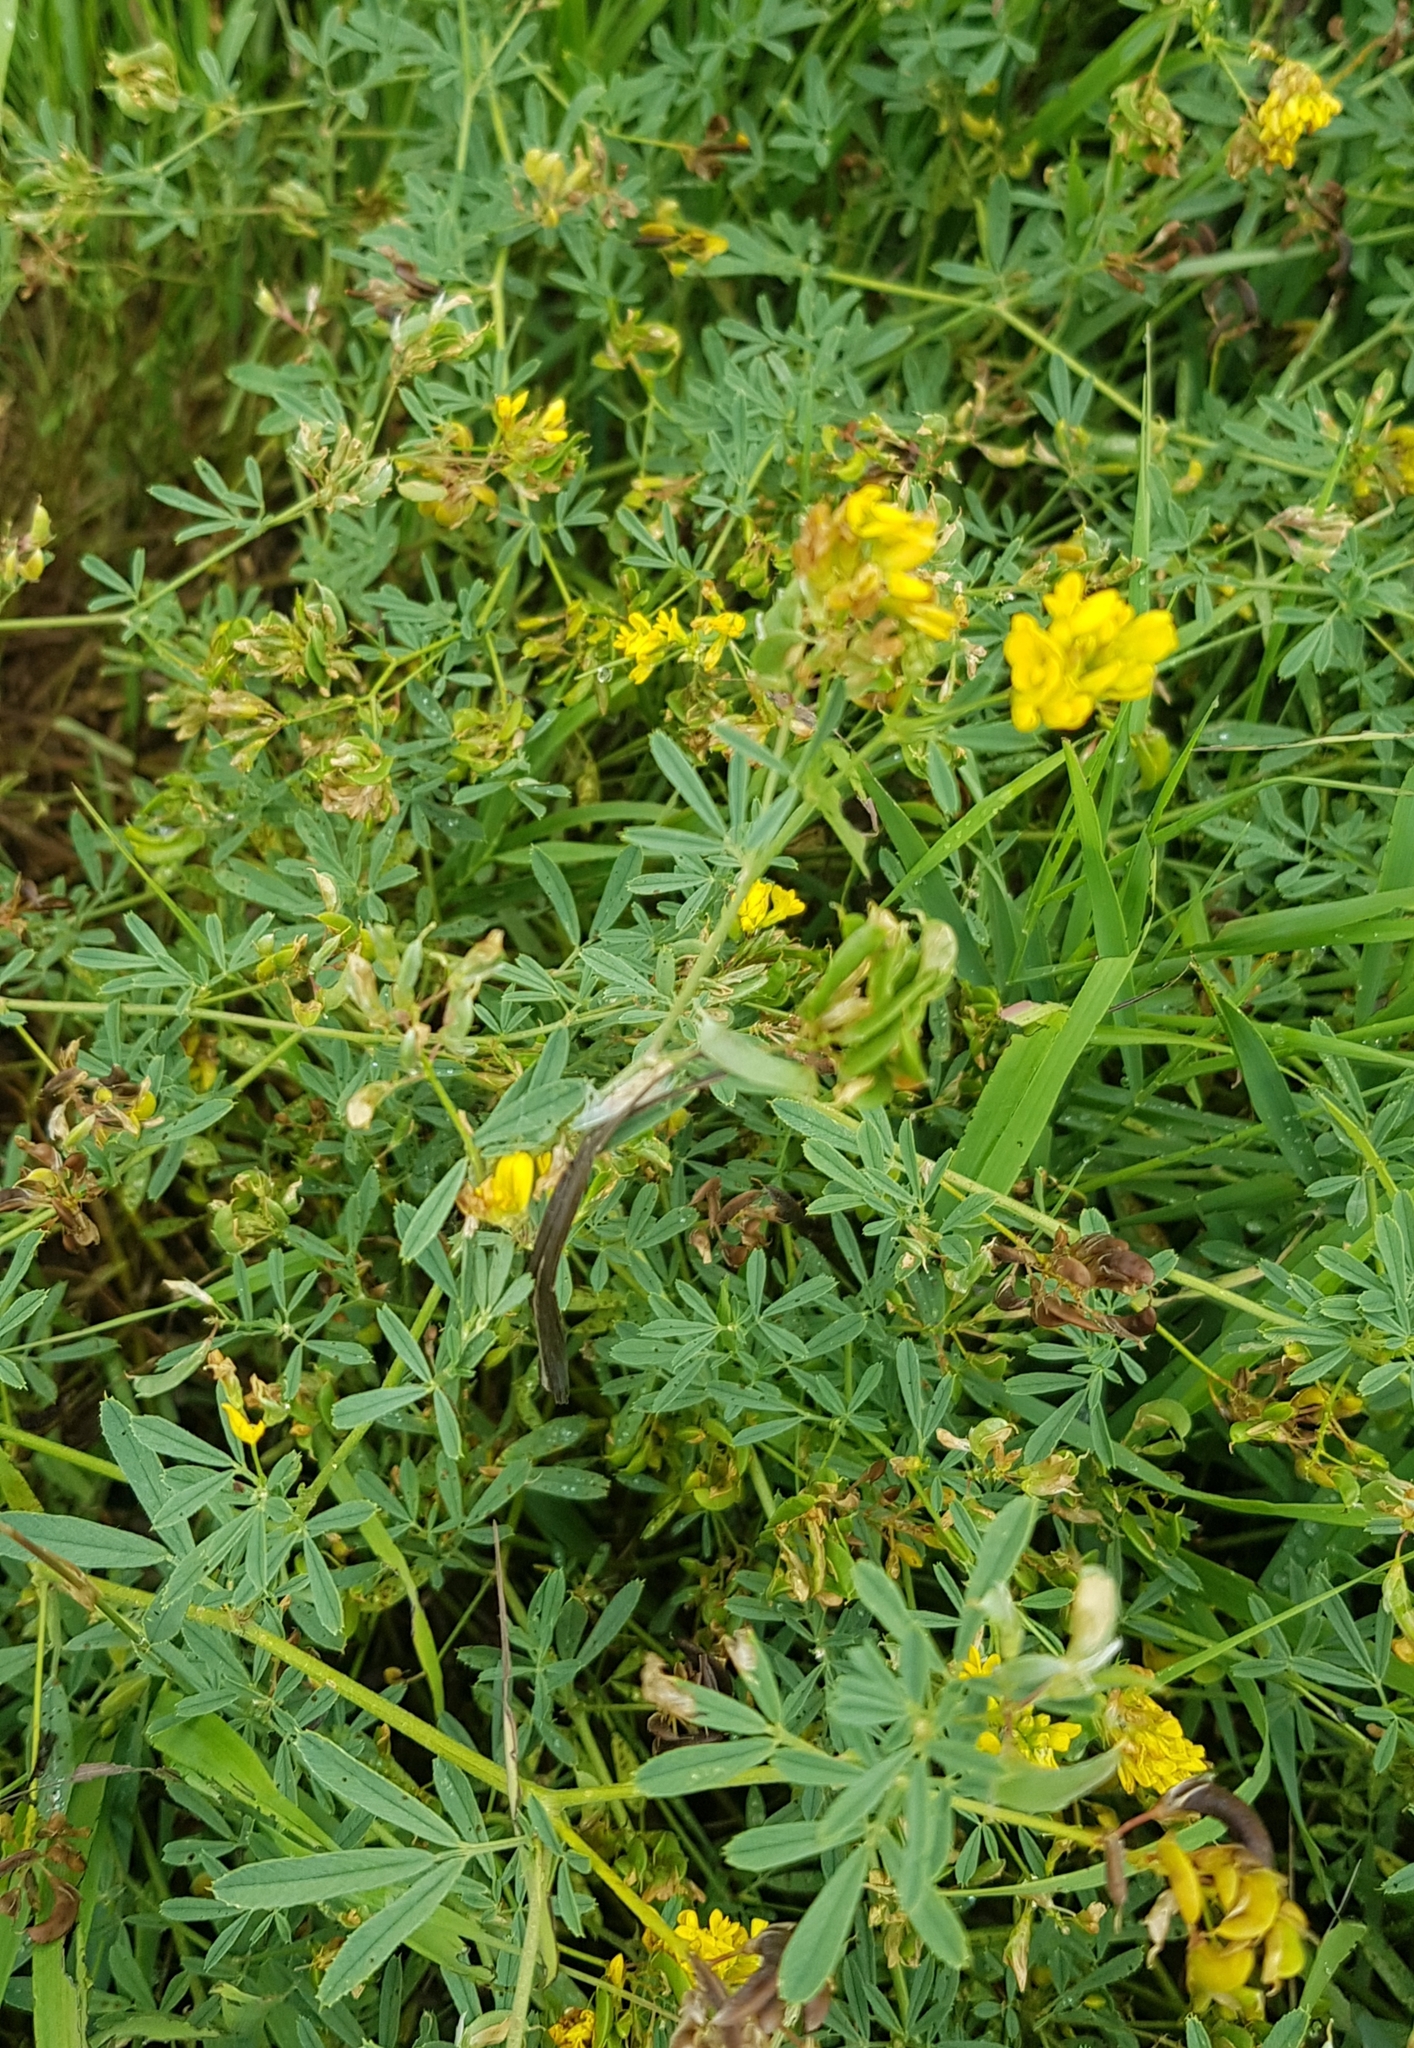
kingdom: Plantae
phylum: Tracheophyta
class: Magnoliopsida
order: Fabales
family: Fabaceae
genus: Medicago
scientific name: Medicago falcata
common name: Sickle medick
